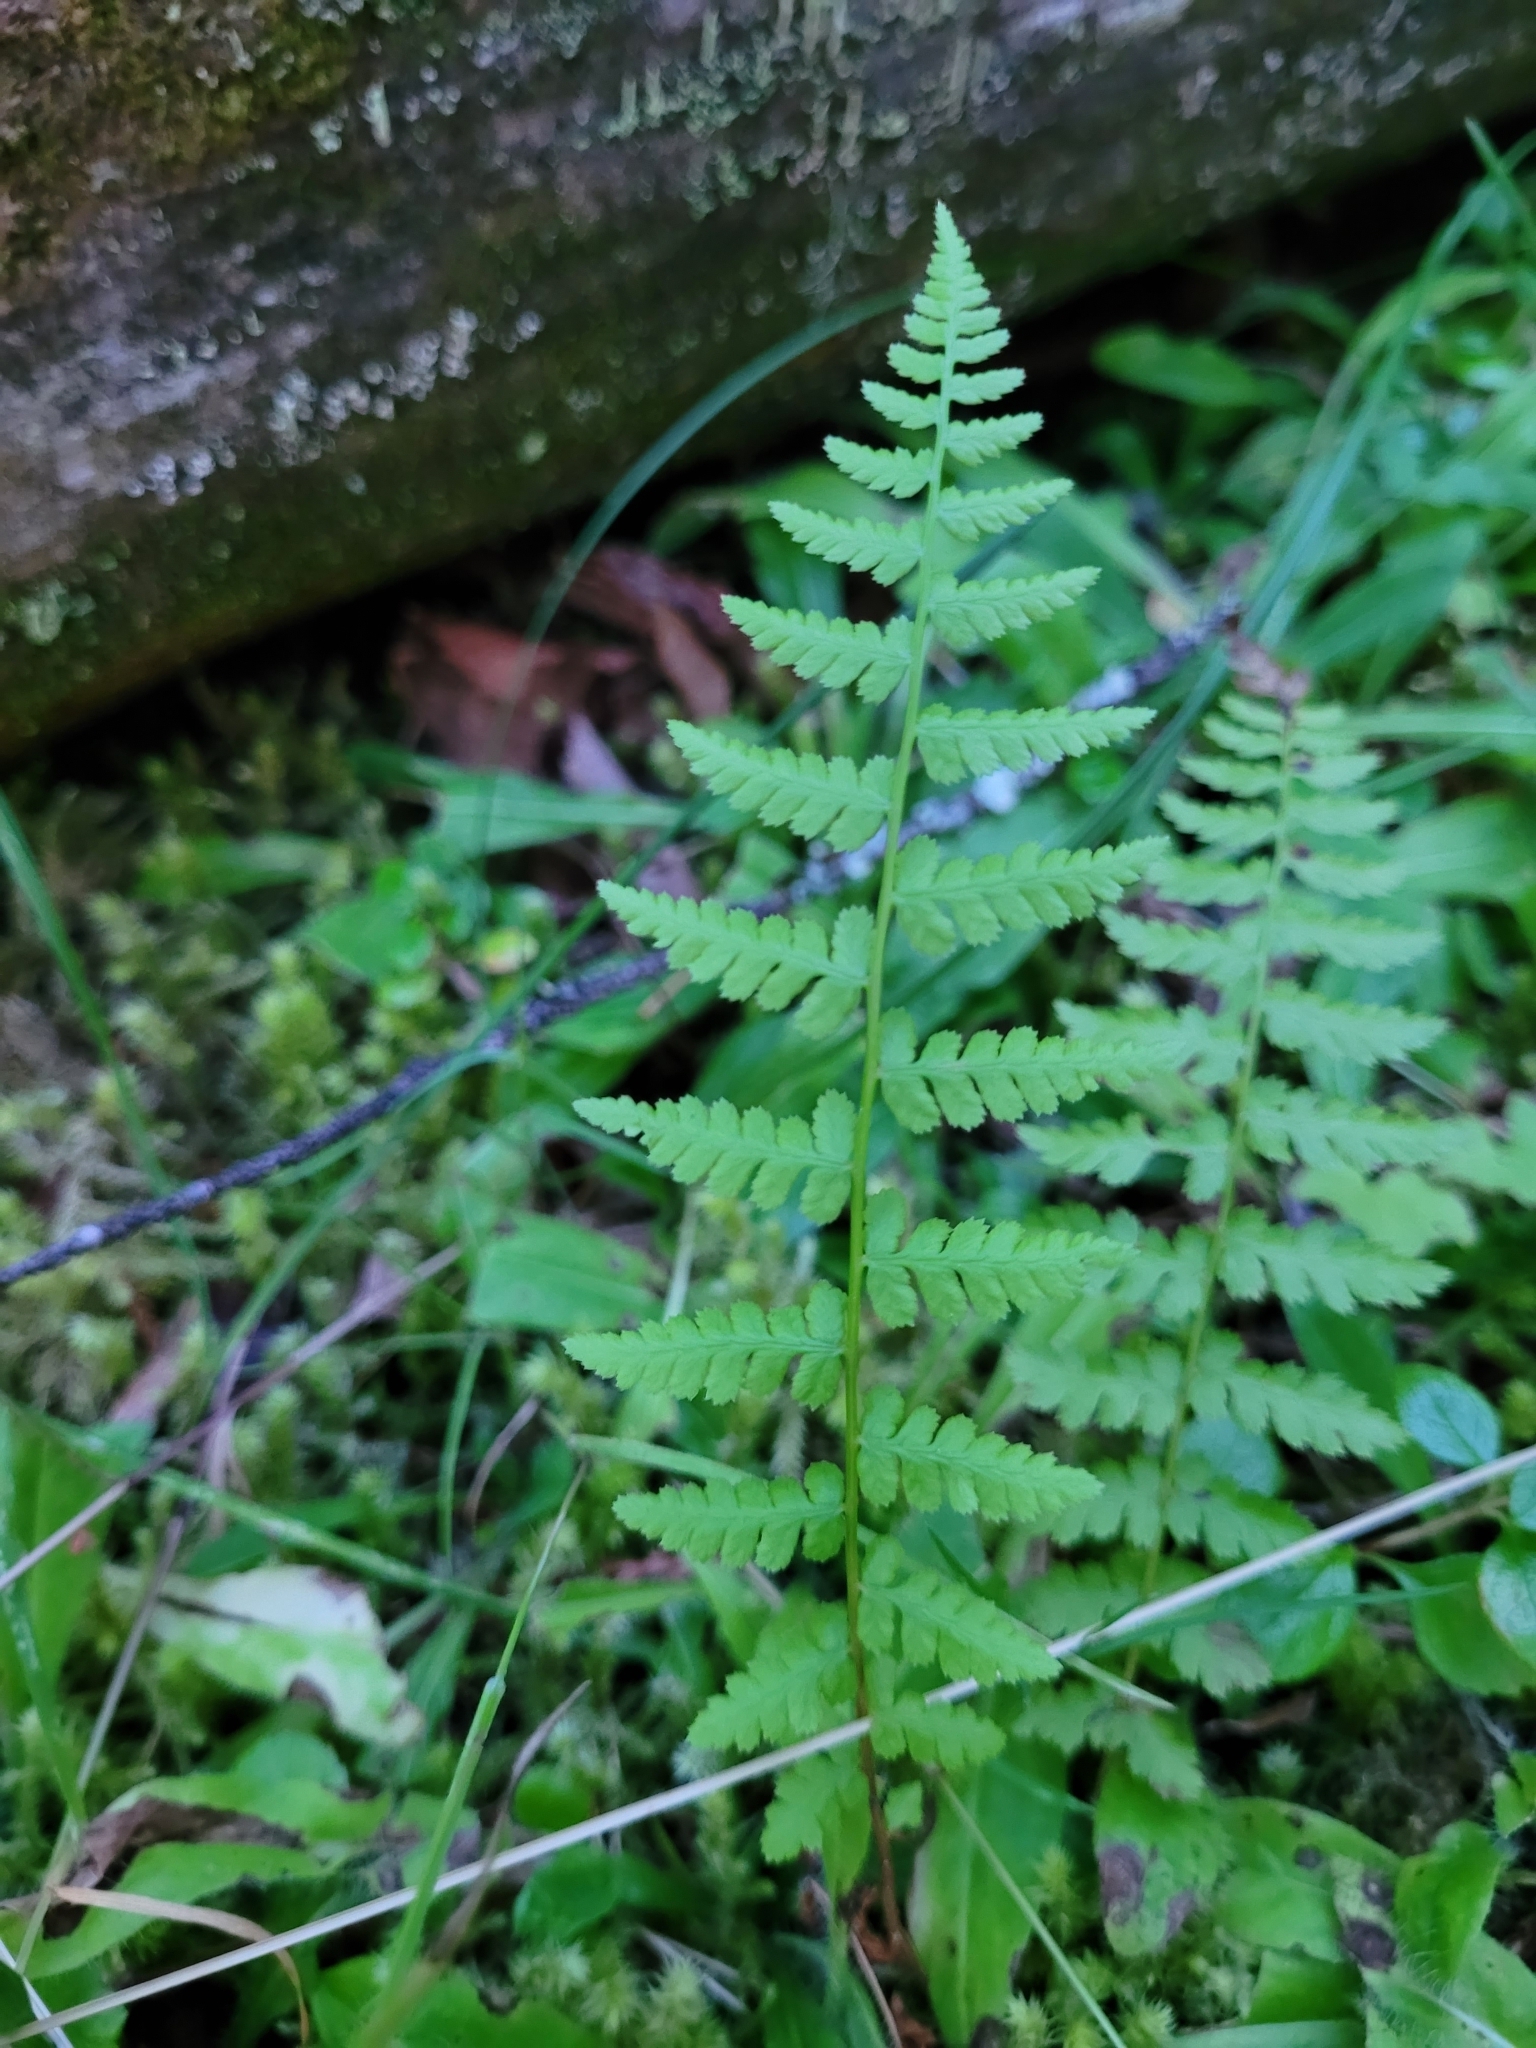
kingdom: Plantae
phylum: Tracheophyta
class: Polypodiopsida
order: Polypodiales
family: Athyriaceae
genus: Athyrium
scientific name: Athyrium filix-femina
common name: Lady fern
